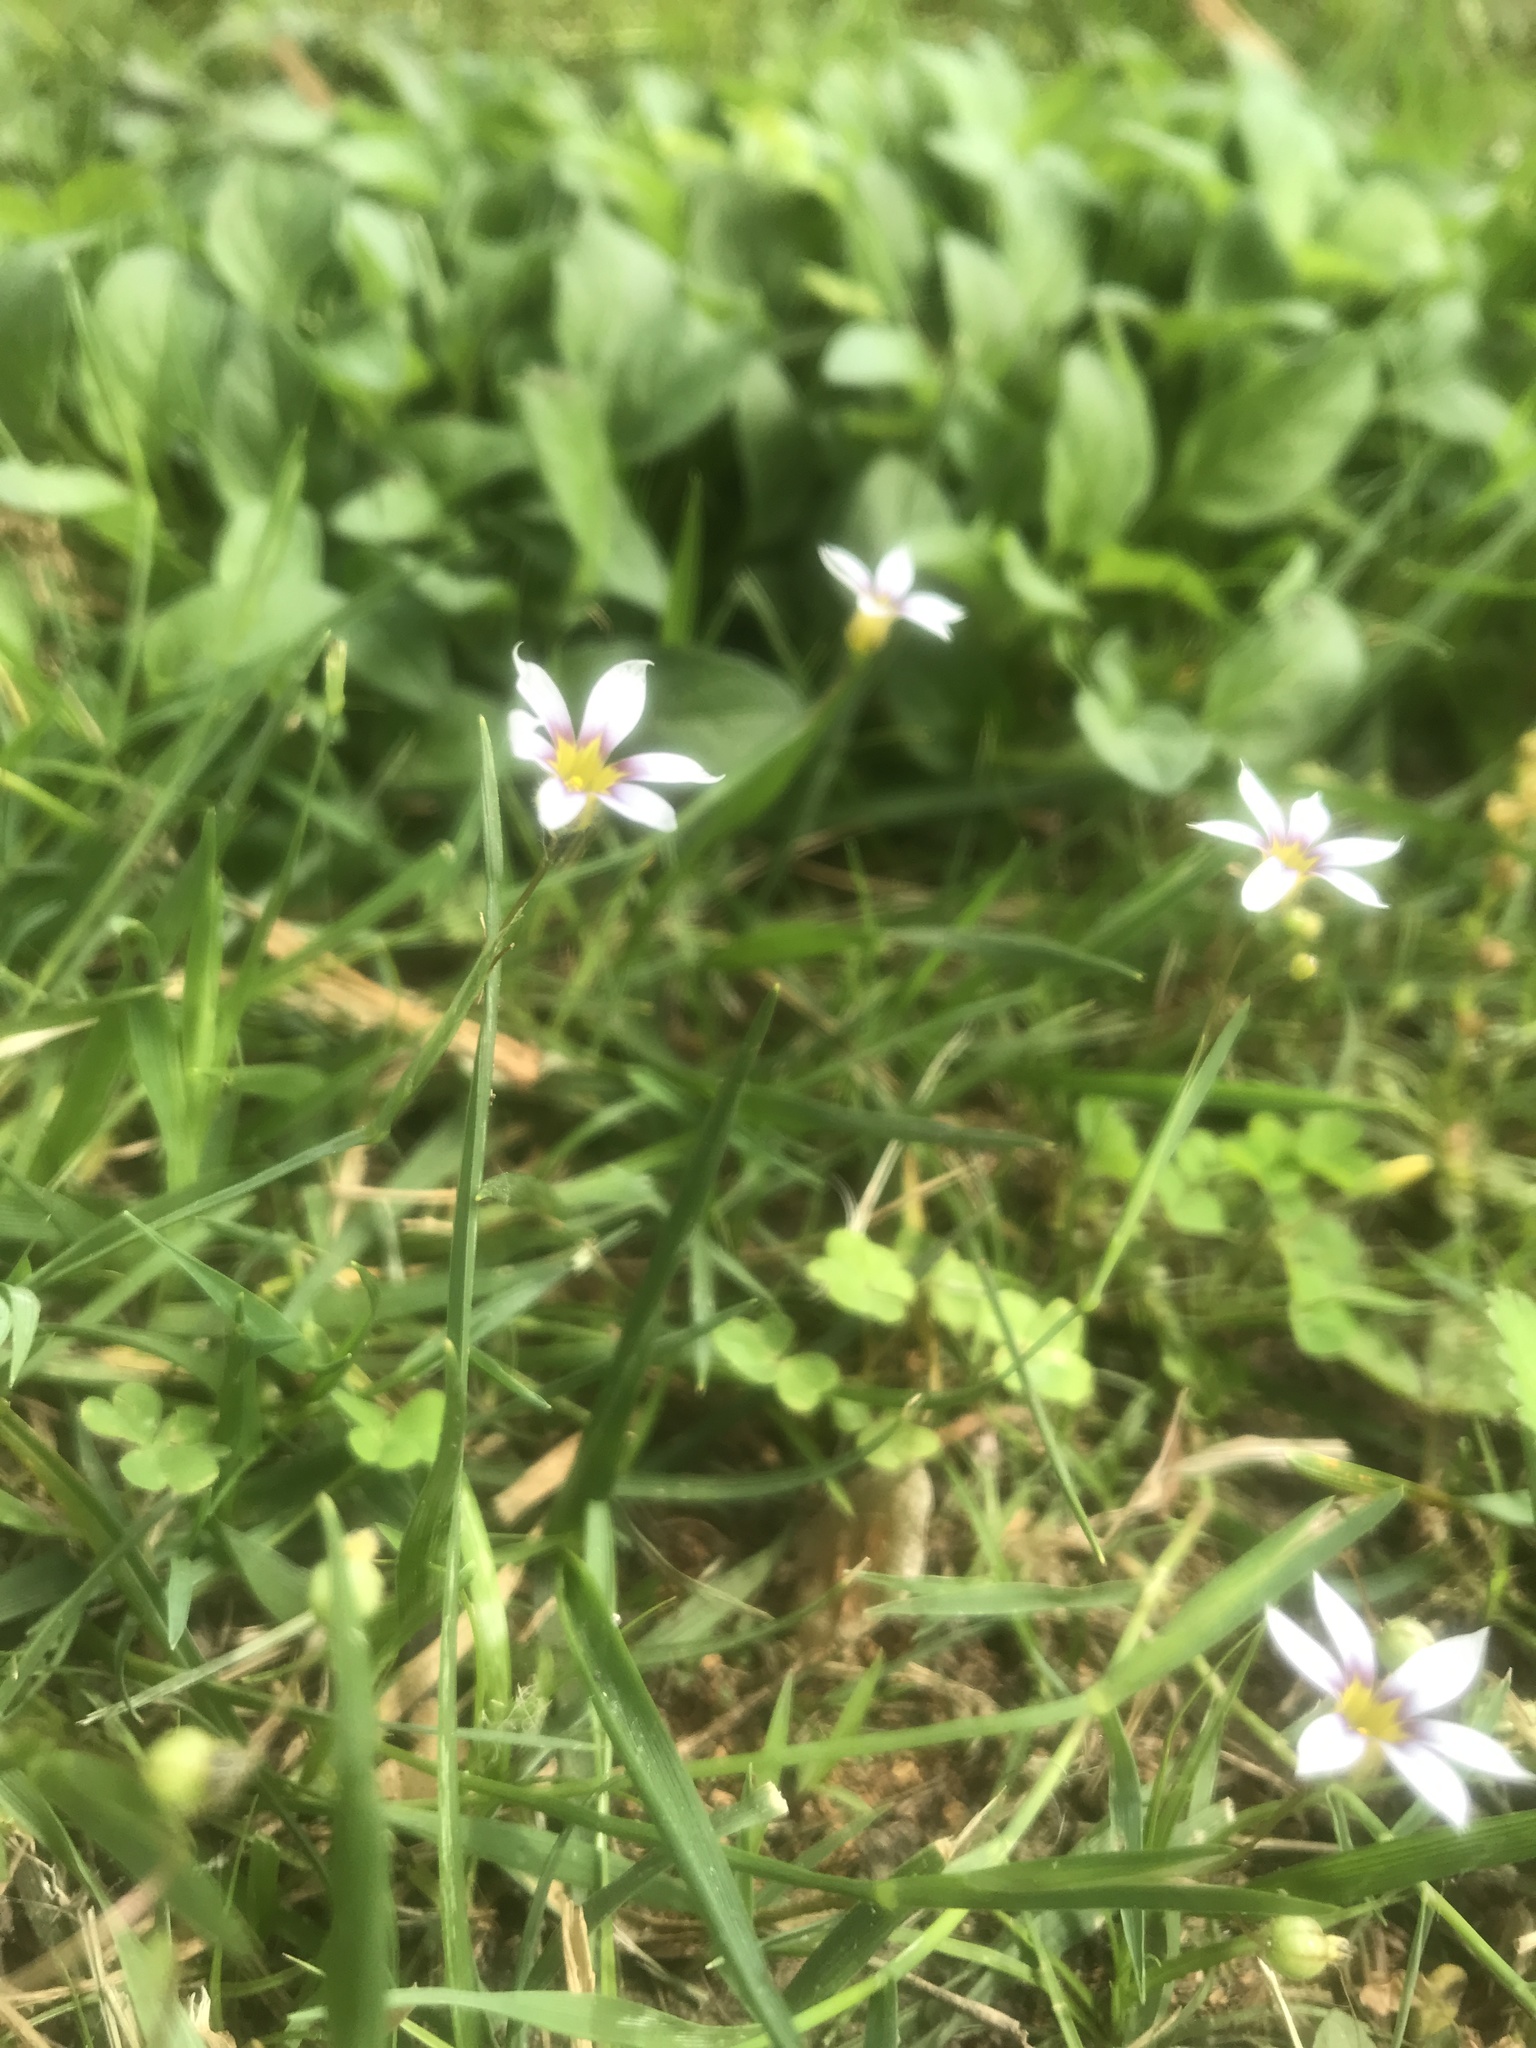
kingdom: Plantae
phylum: Tracheophyta
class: Liliopsida
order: Asparagales
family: Iridaceae
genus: Sisyrinchium
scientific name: Sisyrinchium micranthum
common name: Bermuda pigroot
